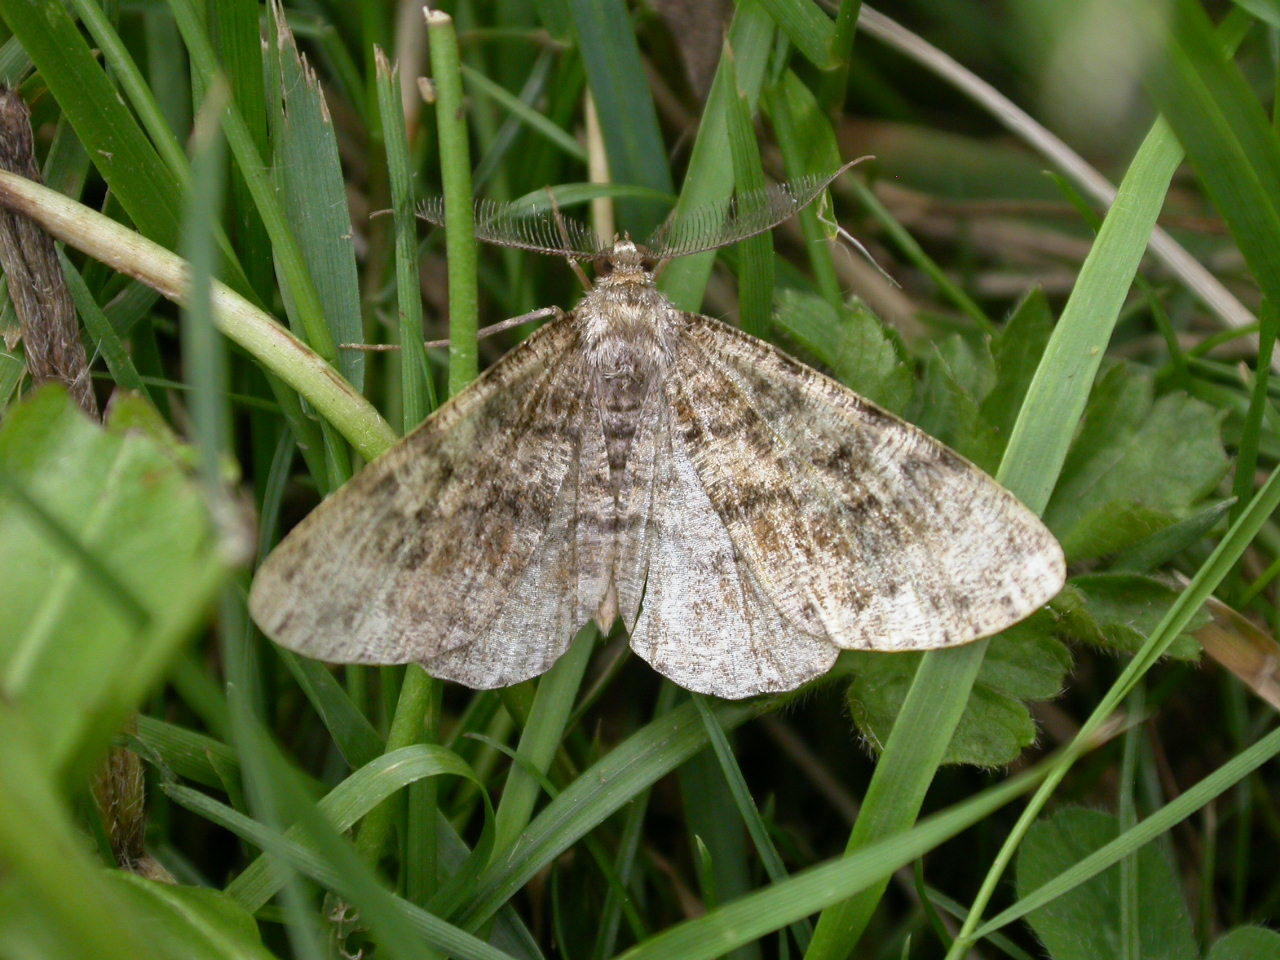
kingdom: Animalia
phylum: Arthropoda
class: Insecta
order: Lepidoptera
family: Geometridae
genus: Deileptenia
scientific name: Deileptenia ribeata
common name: Satin beauty
